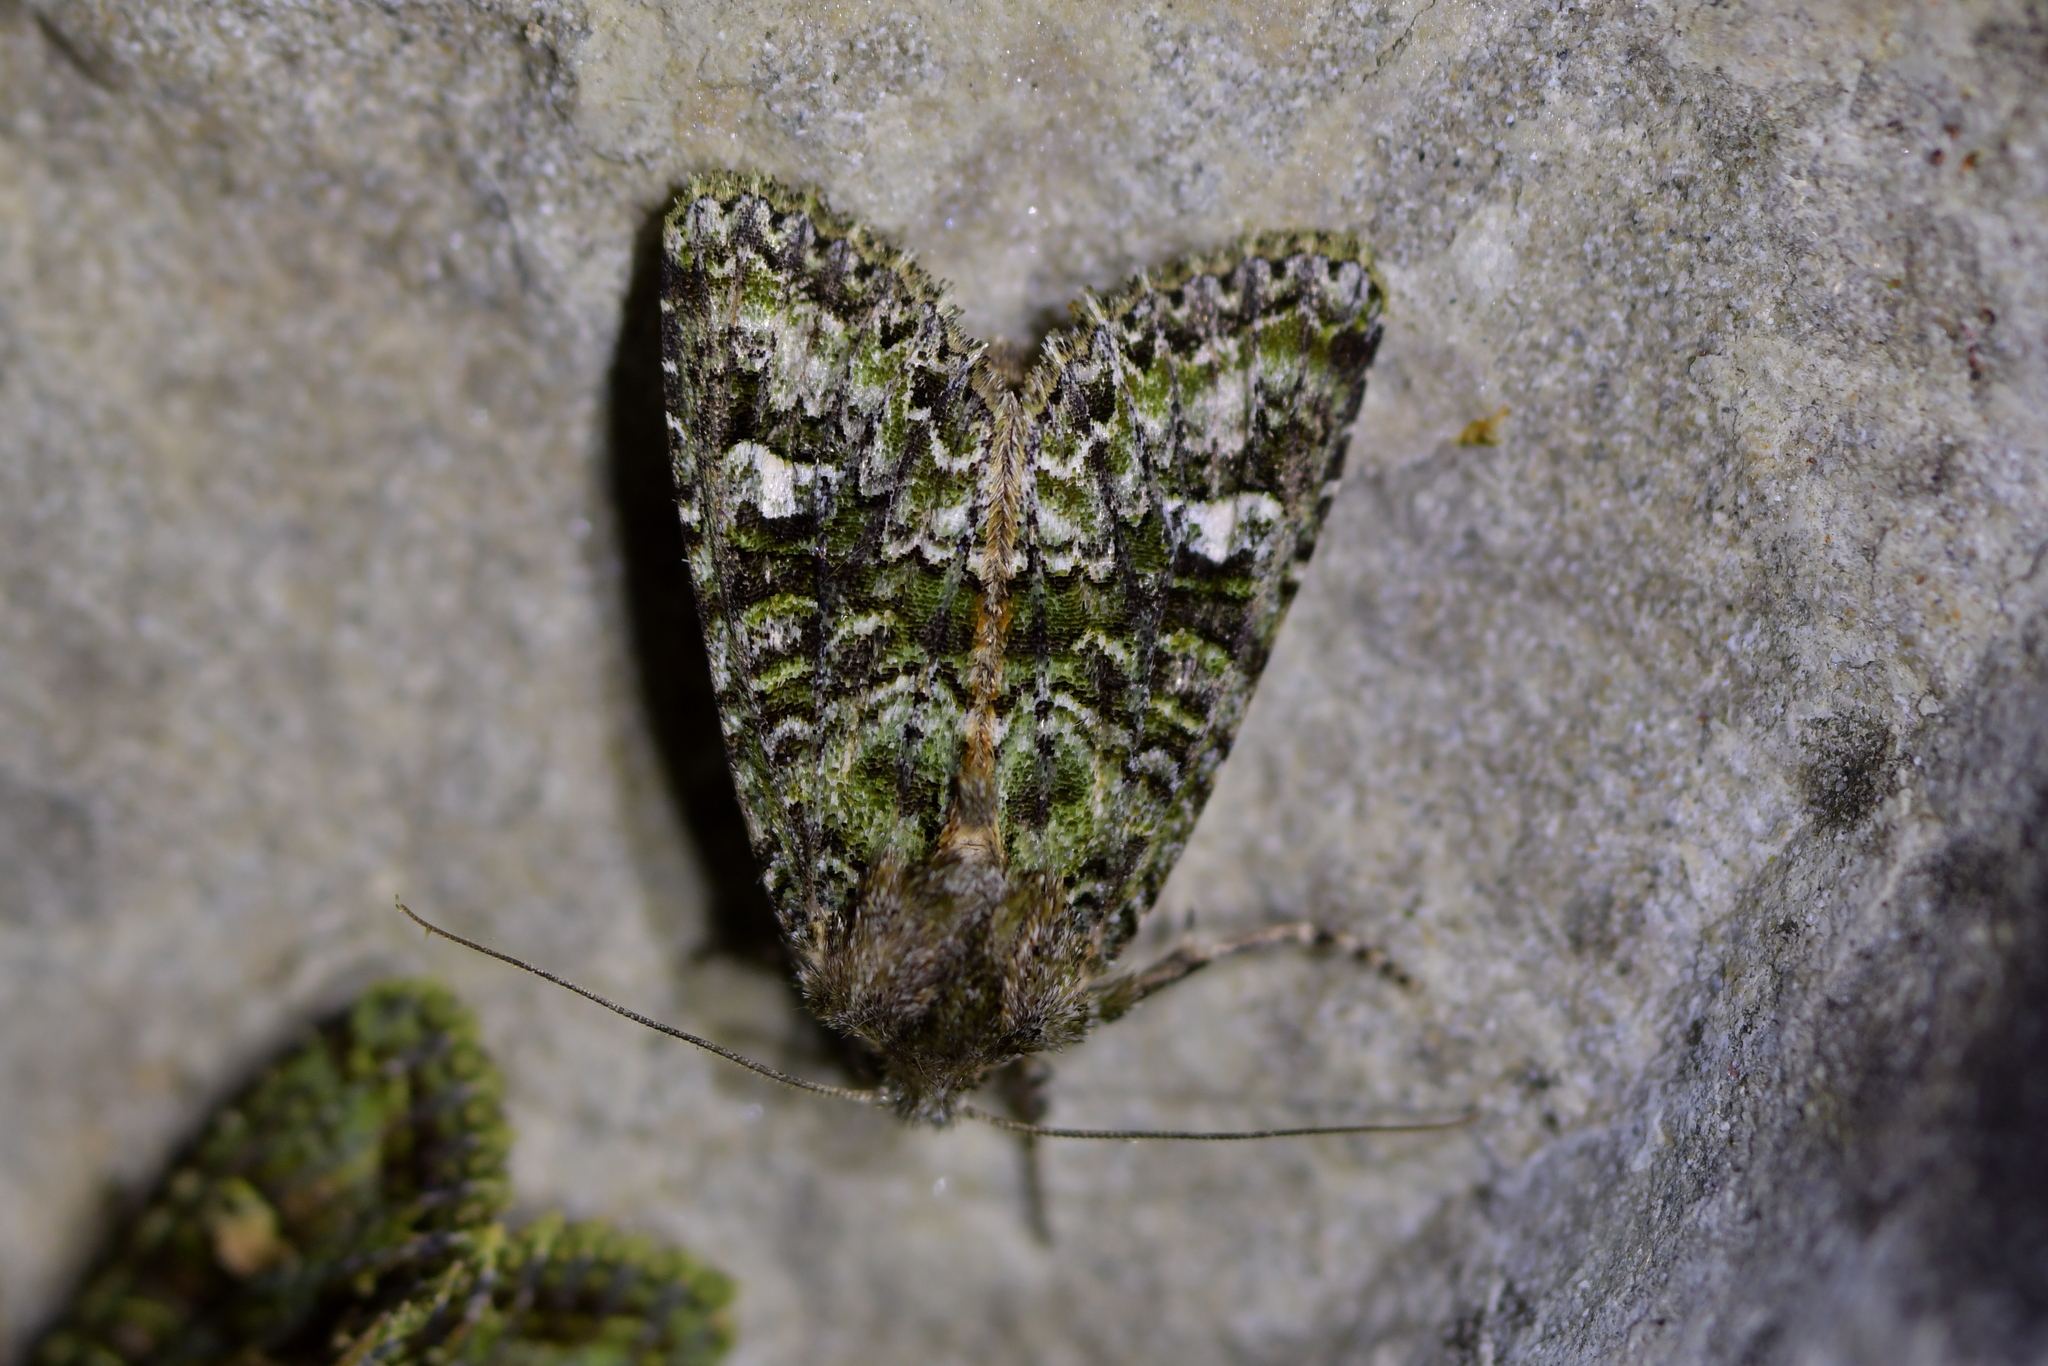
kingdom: Animalia
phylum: Arthropoda
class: Insecta
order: Lepidoptera
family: Noctuidae
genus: Ichneutica
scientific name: Ichneutica
